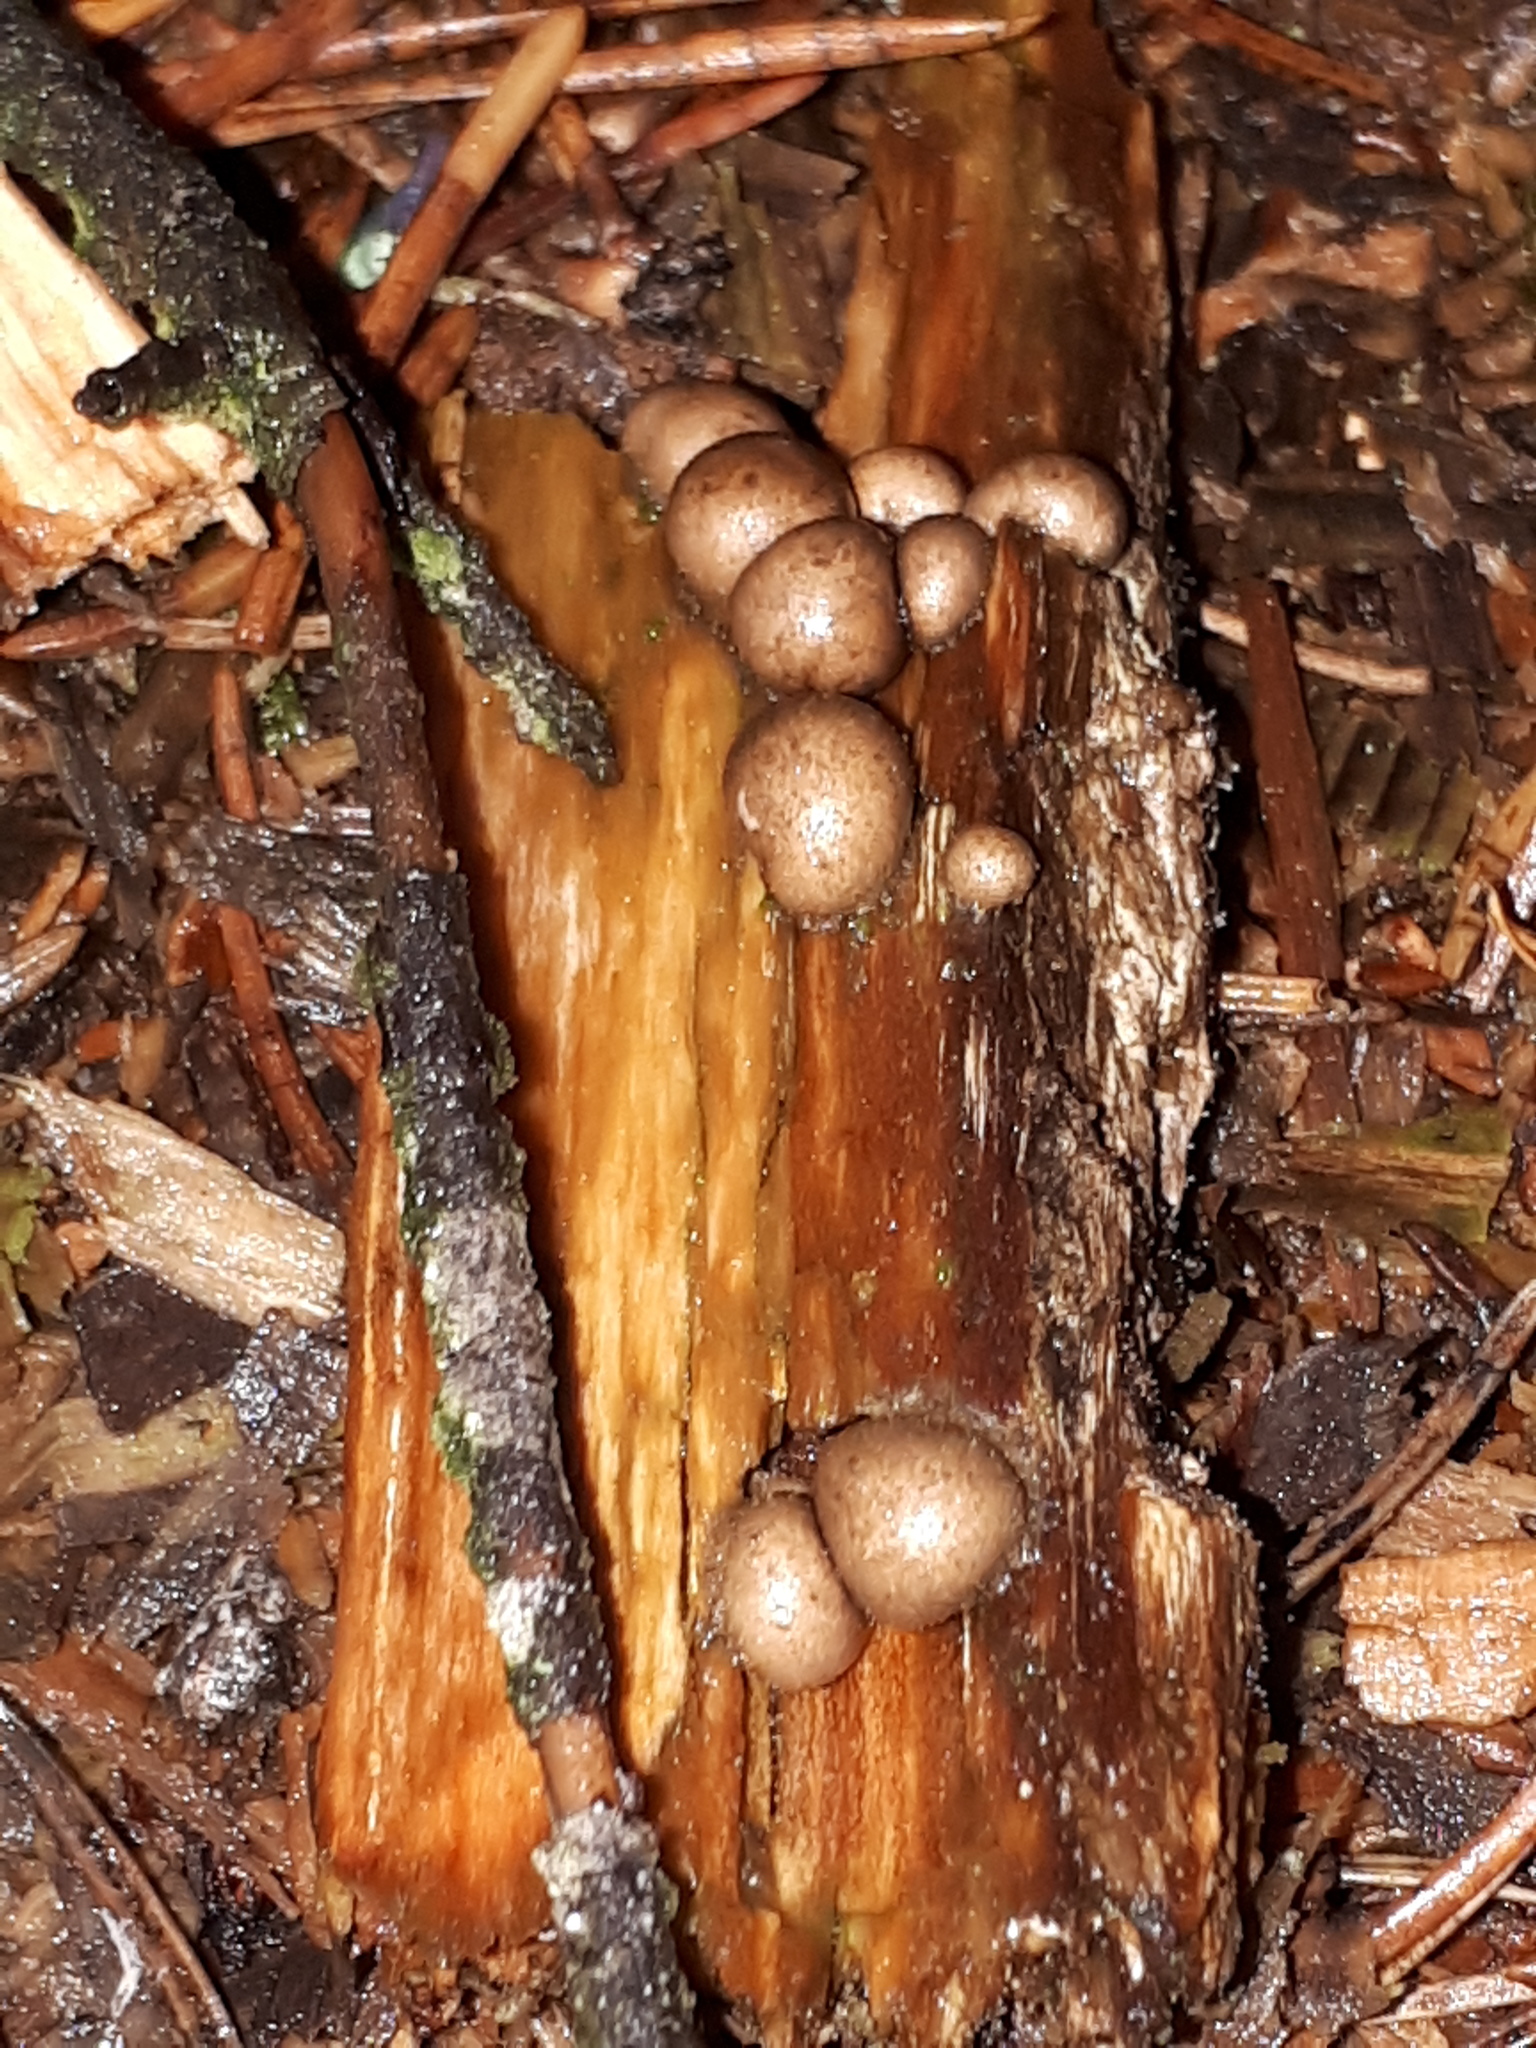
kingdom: Protozoa
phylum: Mycetozoa
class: Myxomycetes
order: Cribrariales
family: Tubiferaceae
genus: Lycogala
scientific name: Lycogala epidendrum
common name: Wolf's milk
